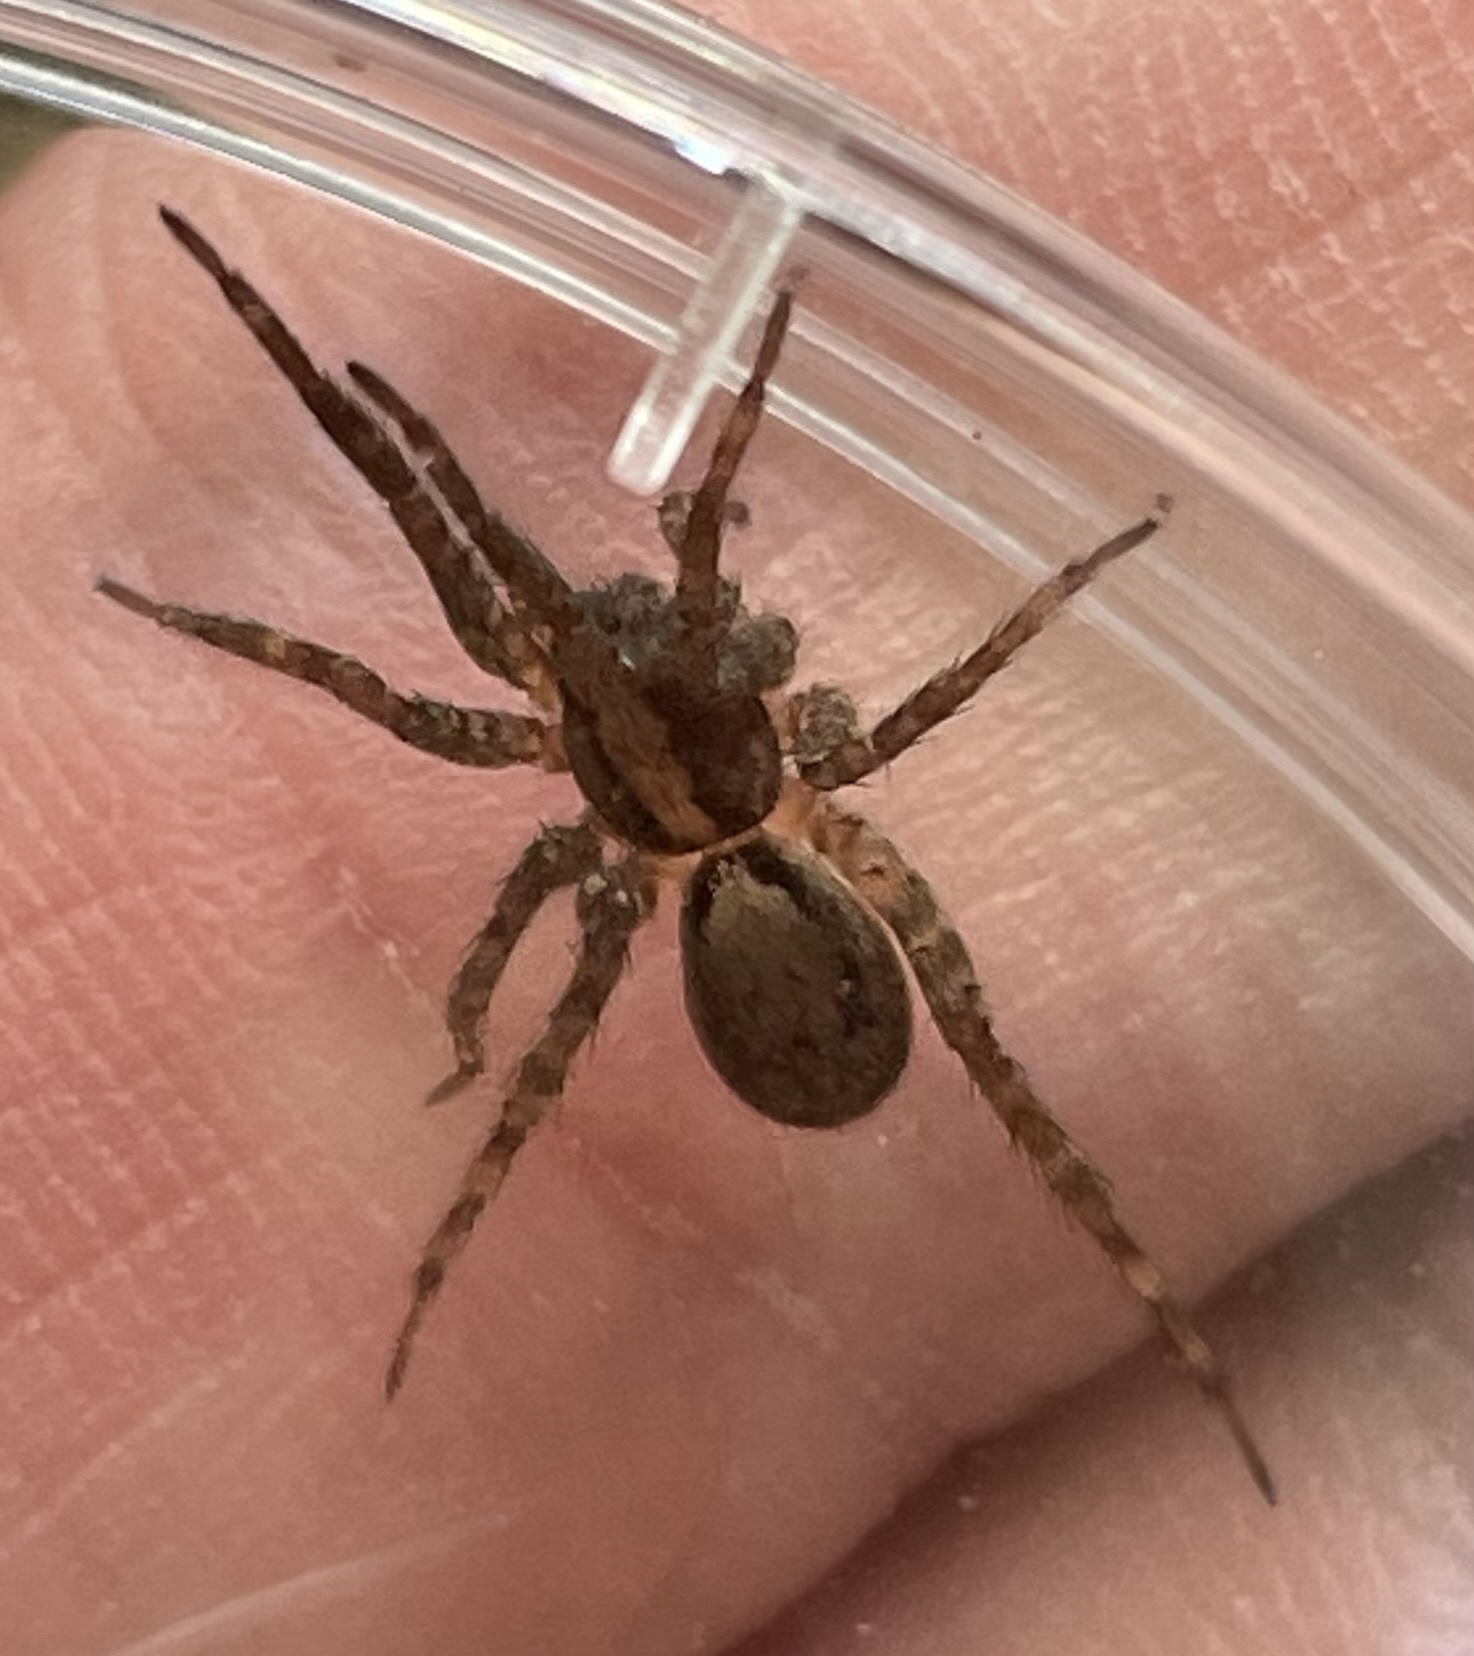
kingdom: Animalia
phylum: Arthropoda
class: Arachnida
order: Araneae
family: Lycosidae
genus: Schizocosa
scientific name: Schizocosa retrorsa
